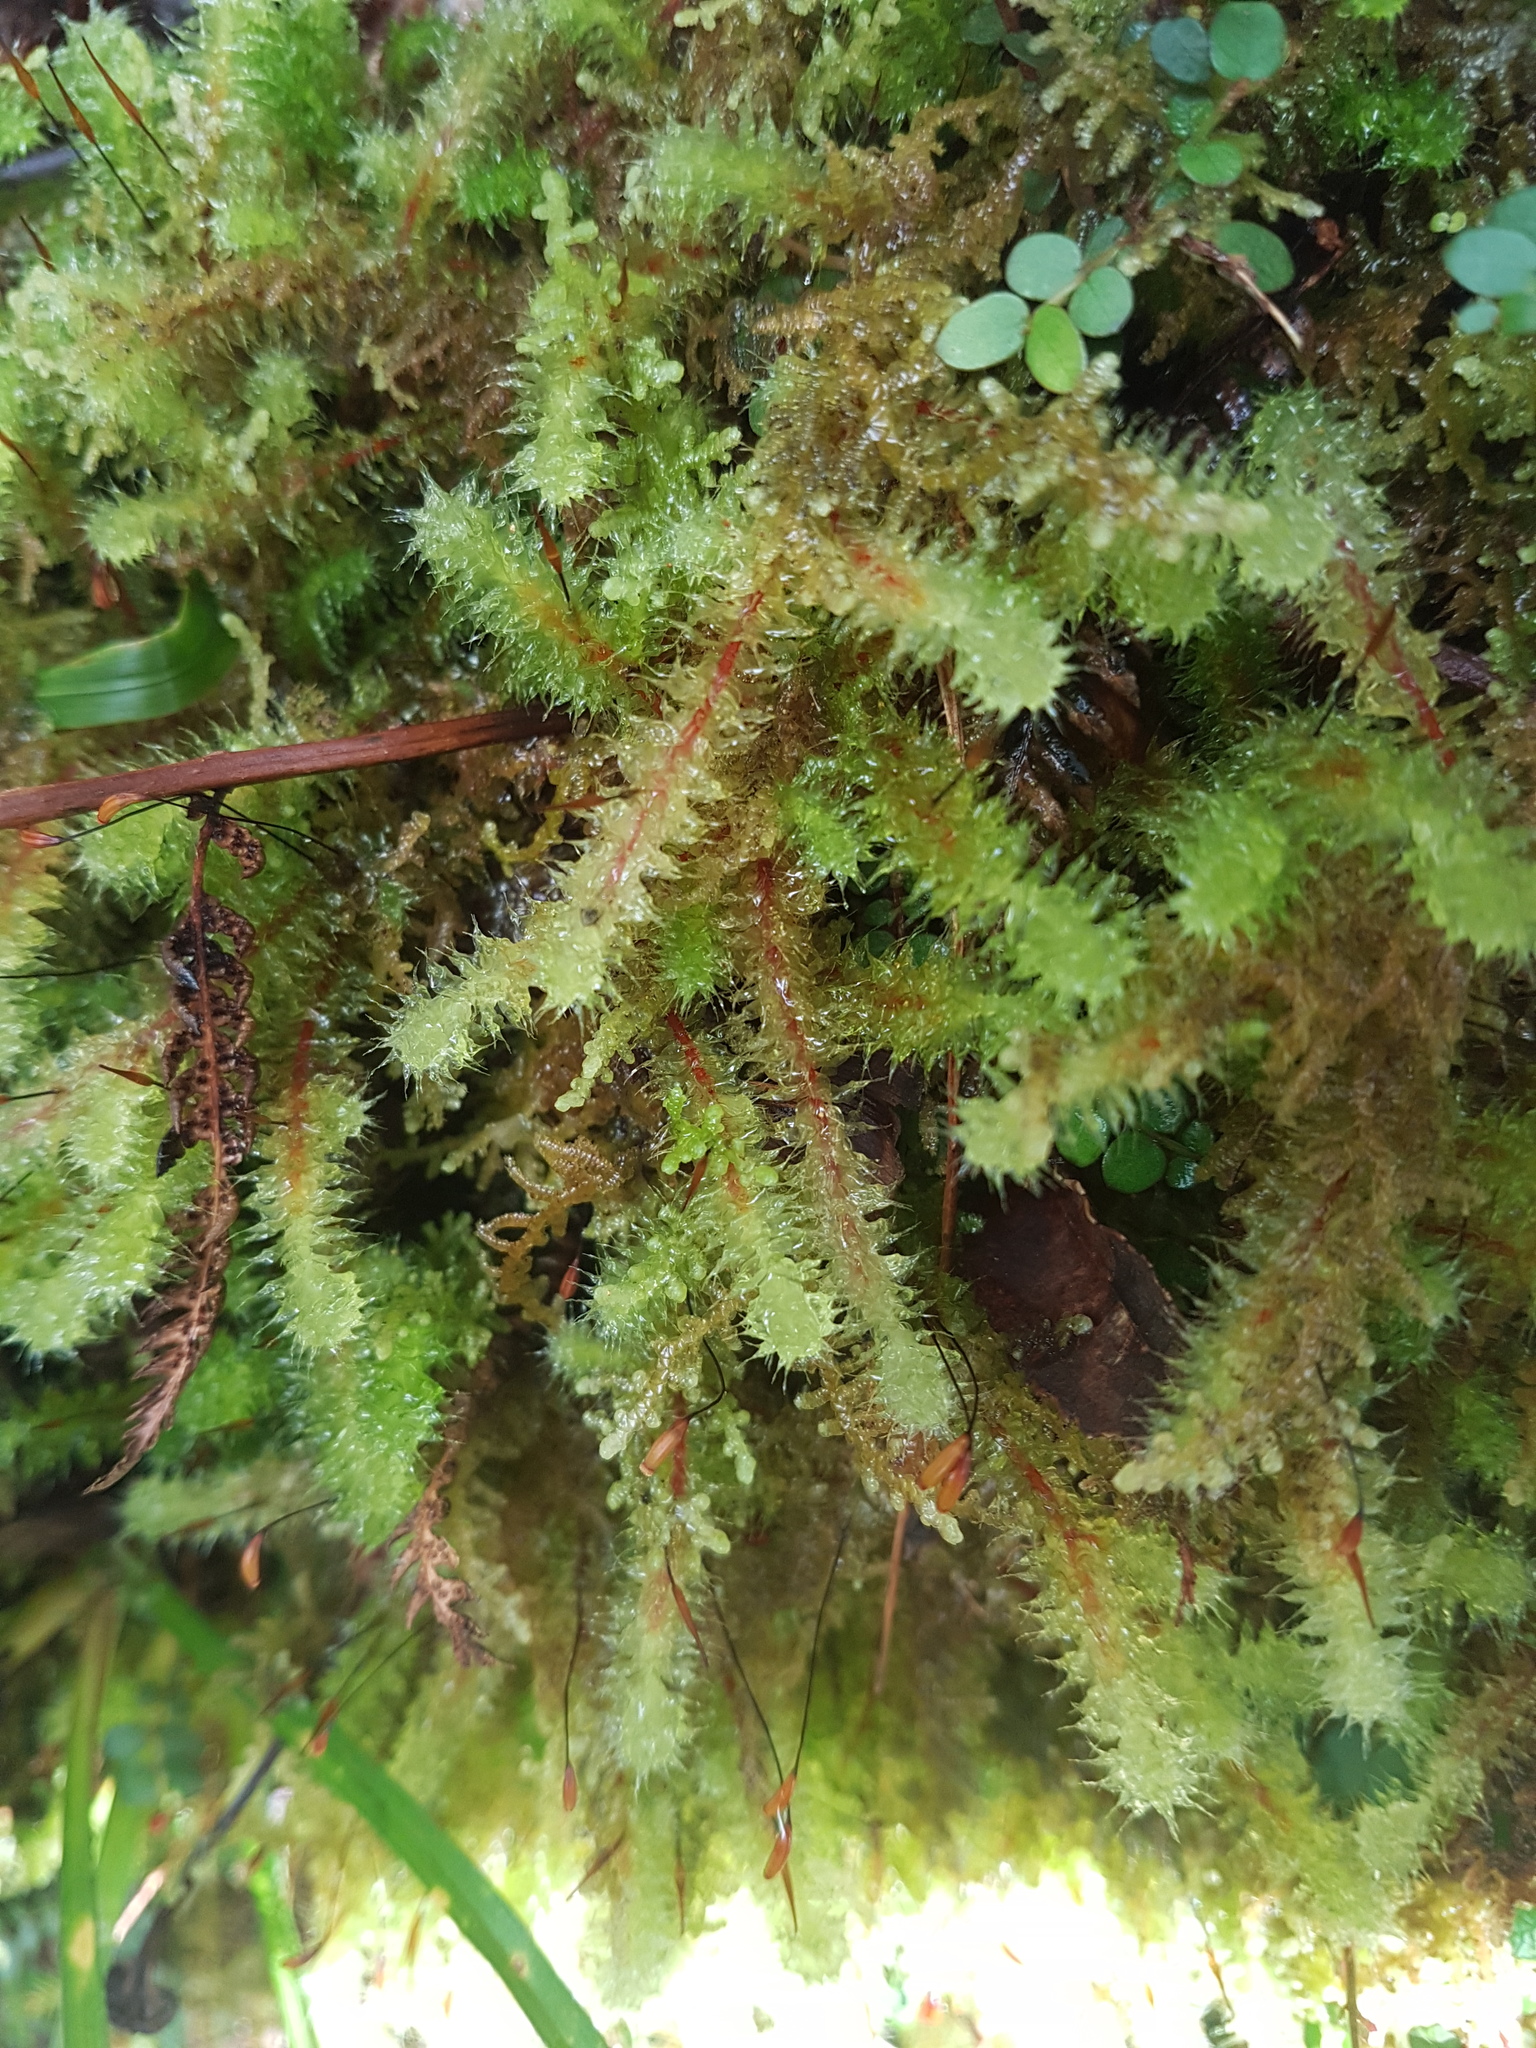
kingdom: Plantae
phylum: Bryophyta
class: Bryopsida
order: Ptychomniales
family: Ptychomniaceae
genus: Ptychomnion
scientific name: Ptychomnion aciculare
